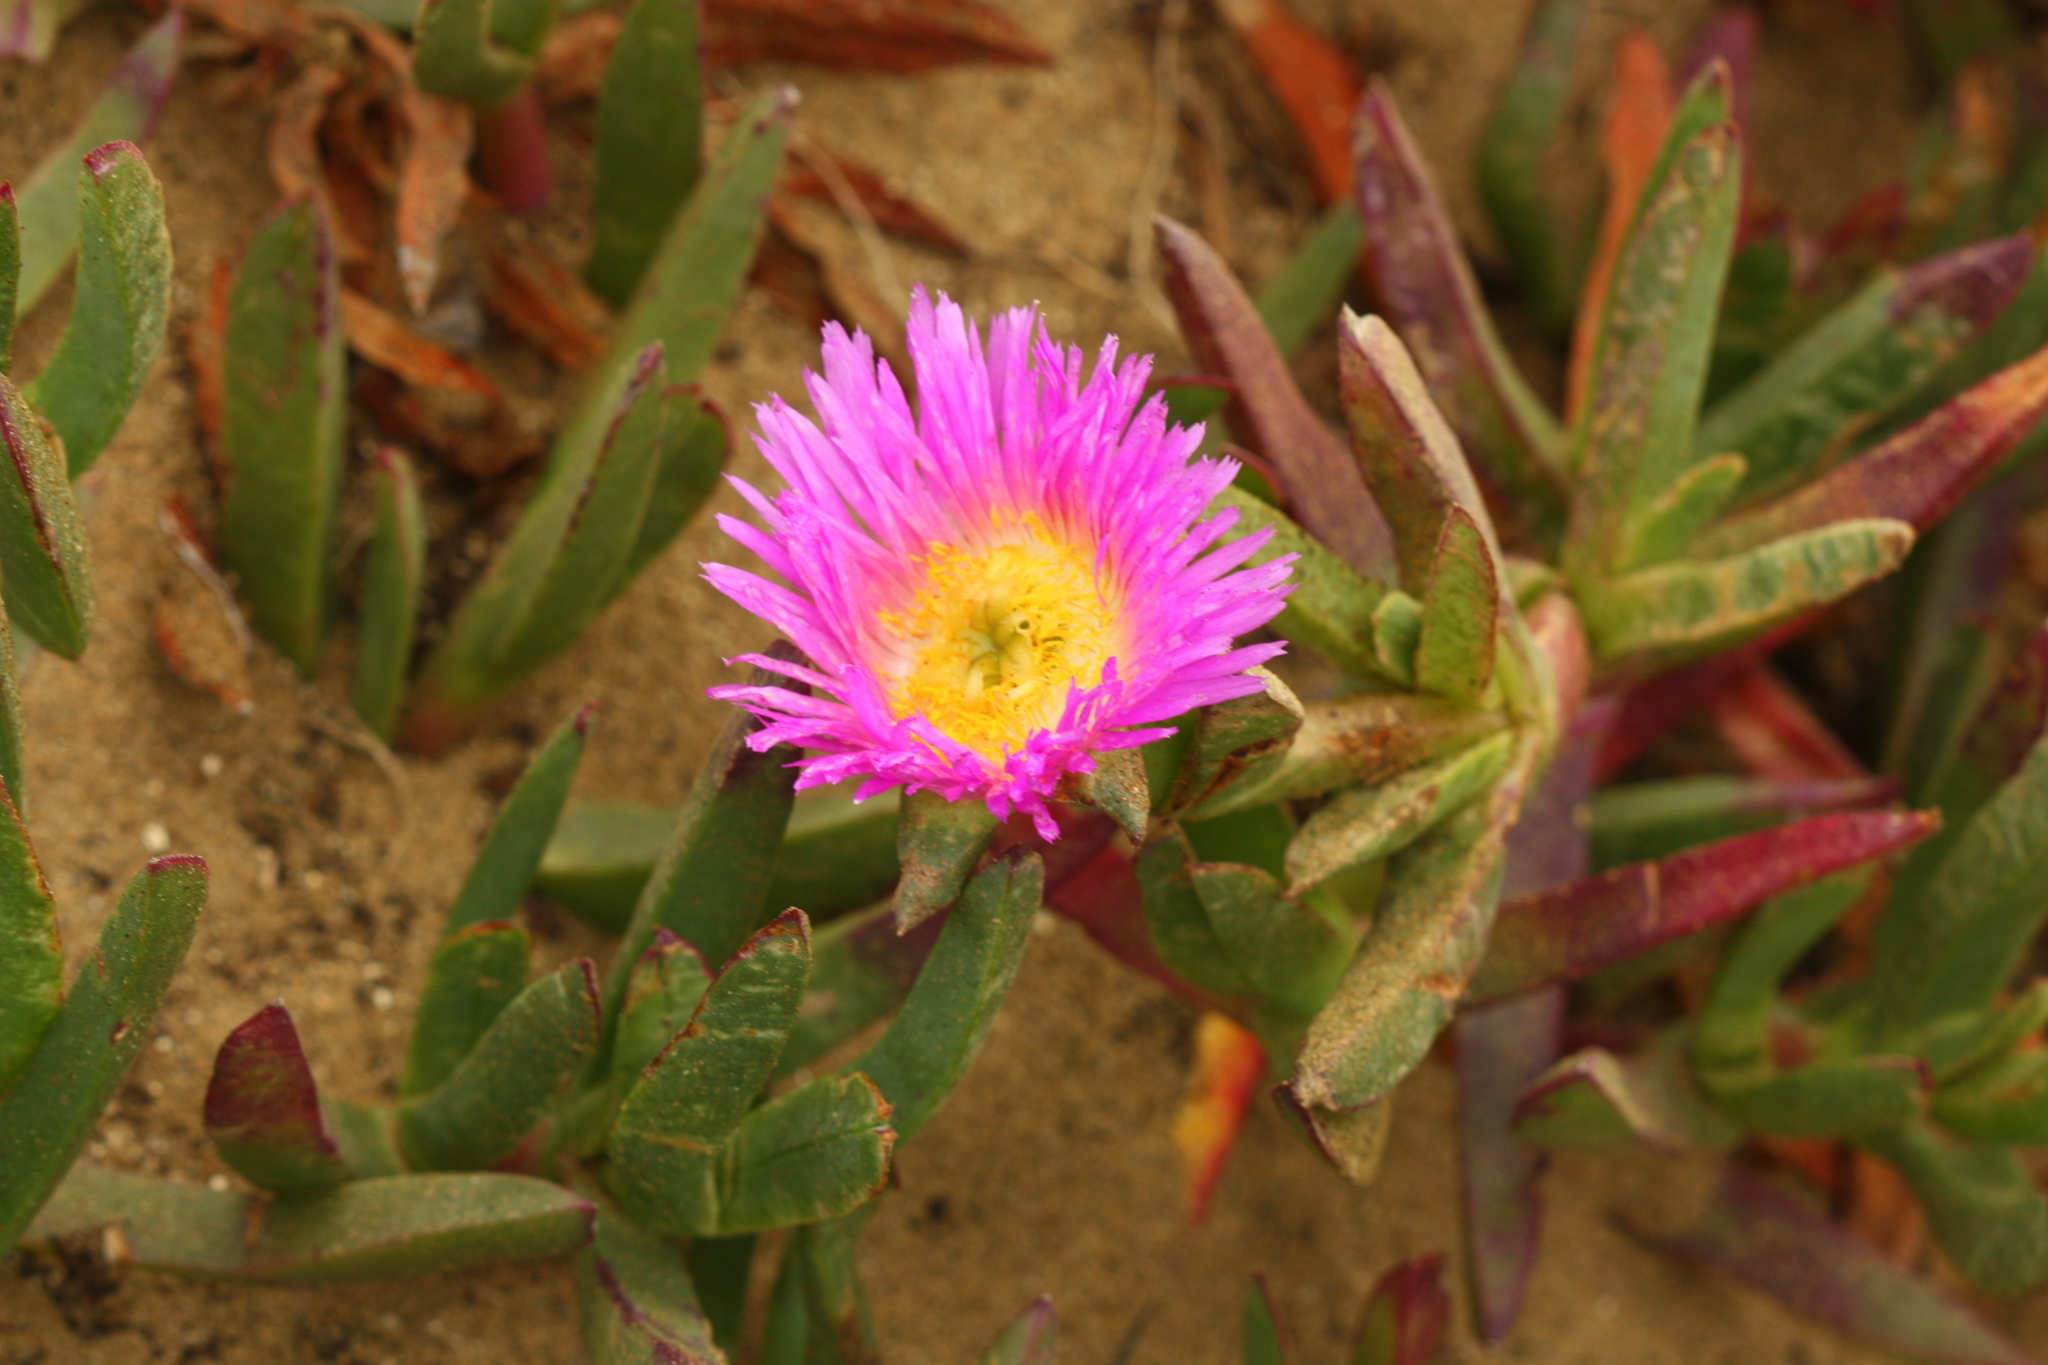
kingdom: Plantae
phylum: Tracheophyta
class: Magnoliopsida
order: Caryophyllales
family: Aizoaceae
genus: Carpobrotus
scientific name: Carpobrotus edulis
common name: Hottentot-fig
